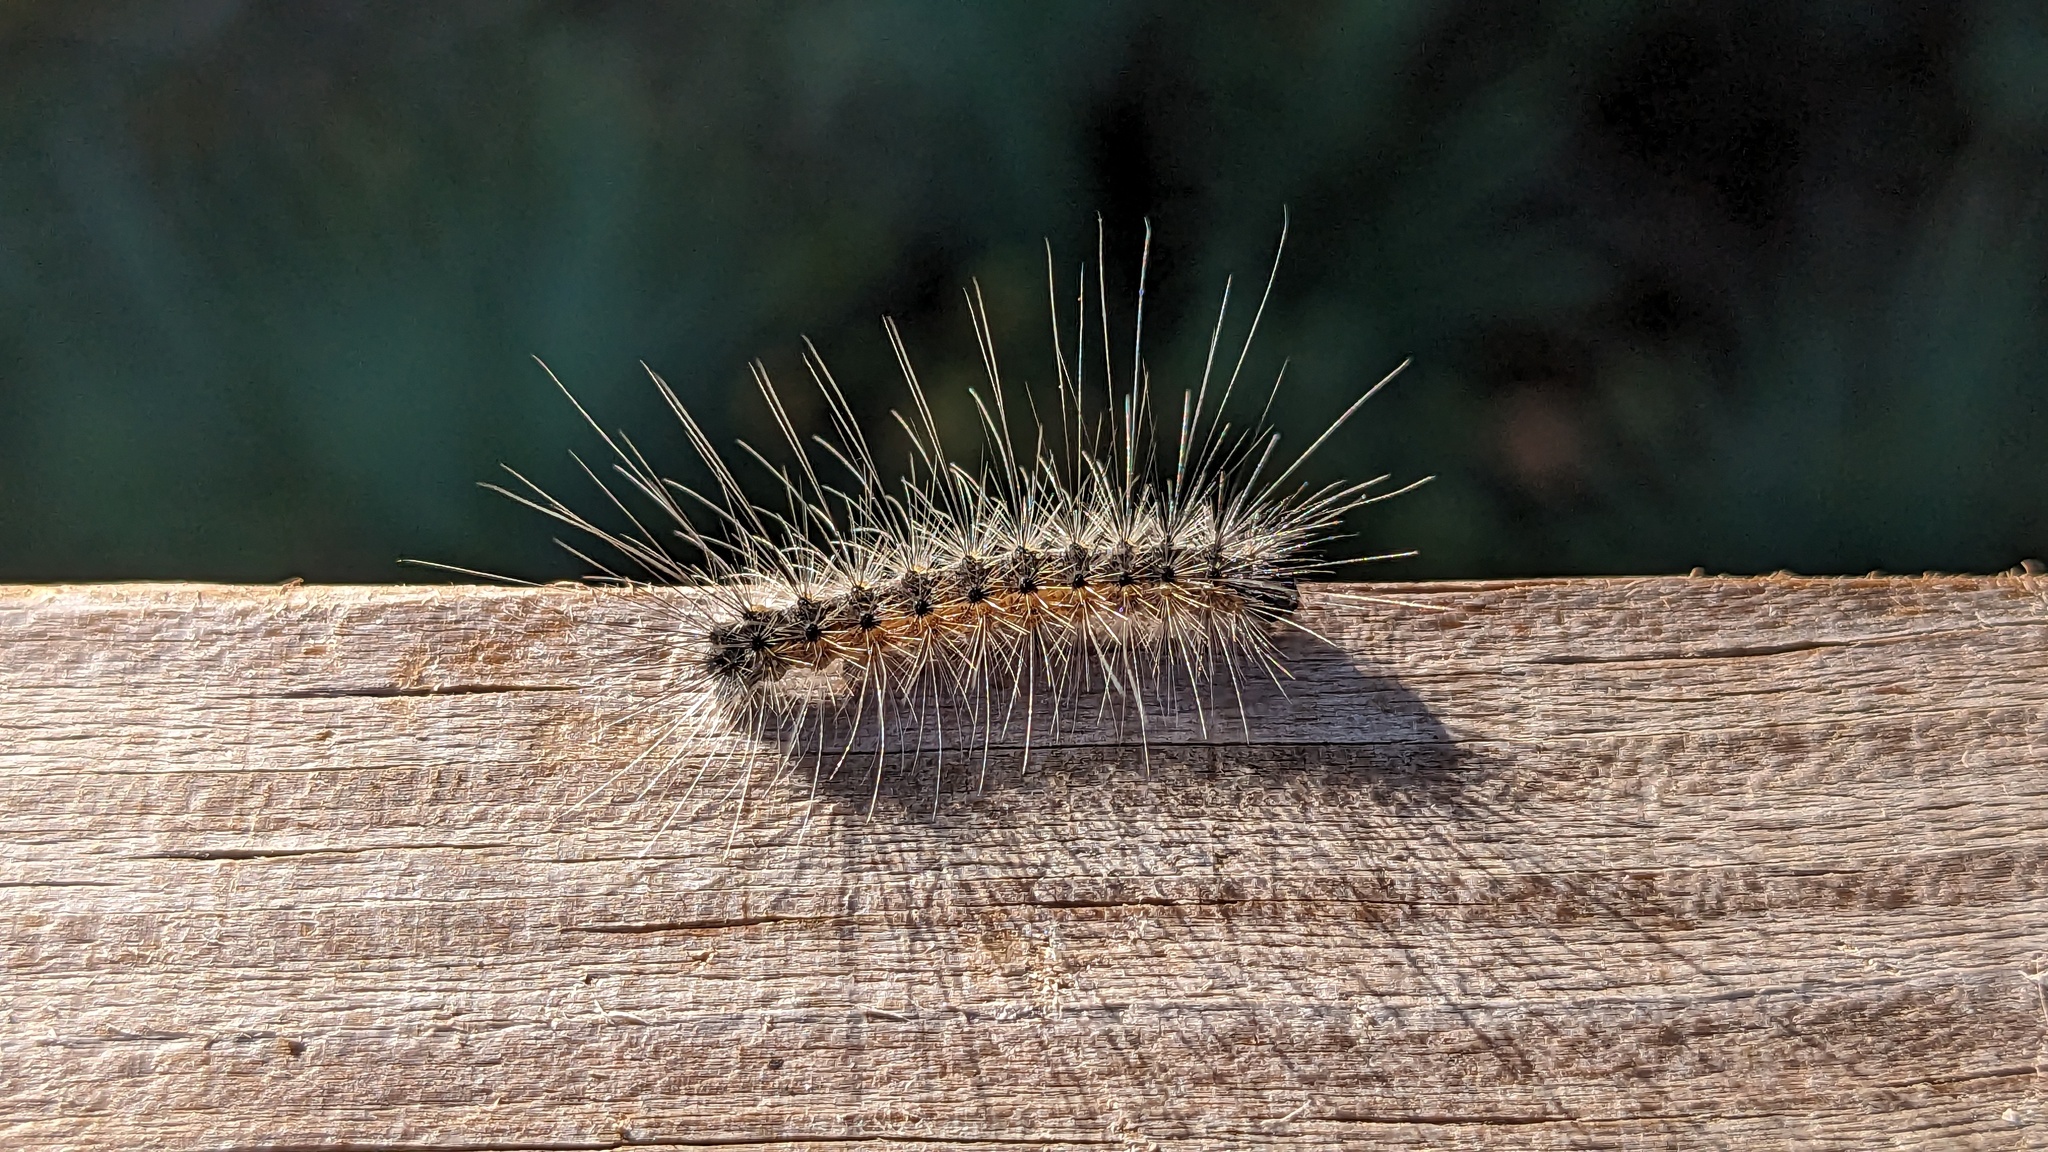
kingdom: Animalia
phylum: Arthropoda
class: Insecta
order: Lepidoptera
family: Erebidae
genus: Hyphantria
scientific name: Hyphantria cunea
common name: American white moth
